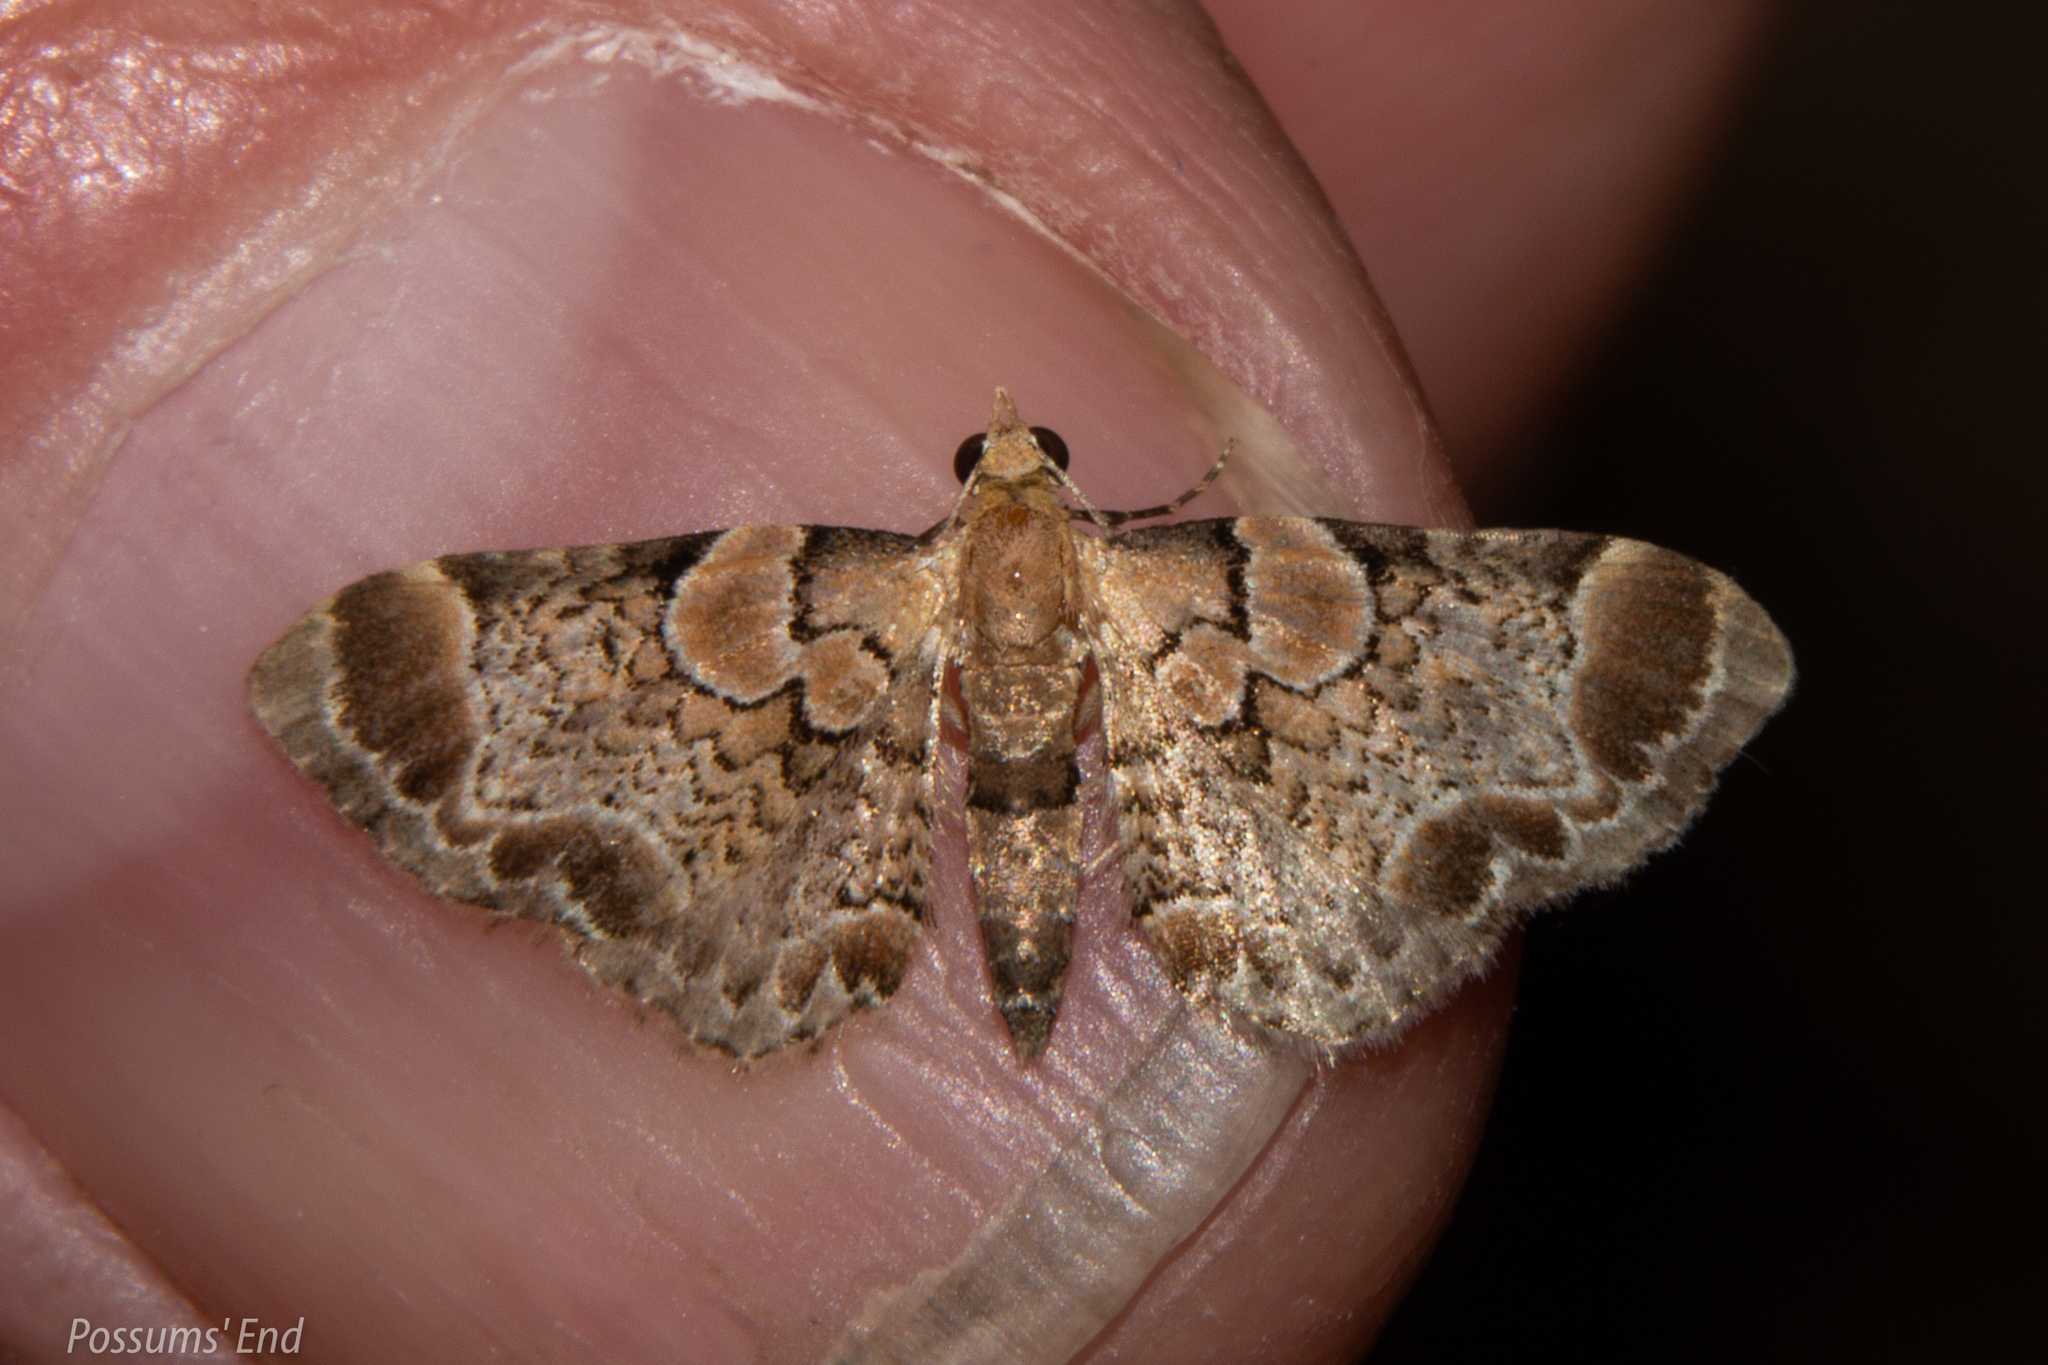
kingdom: Animalia
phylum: Arthropoda
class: Insecta
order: Lepidoptera
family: Geometridae
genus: Chloroclystis
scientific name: Chloroclystis
